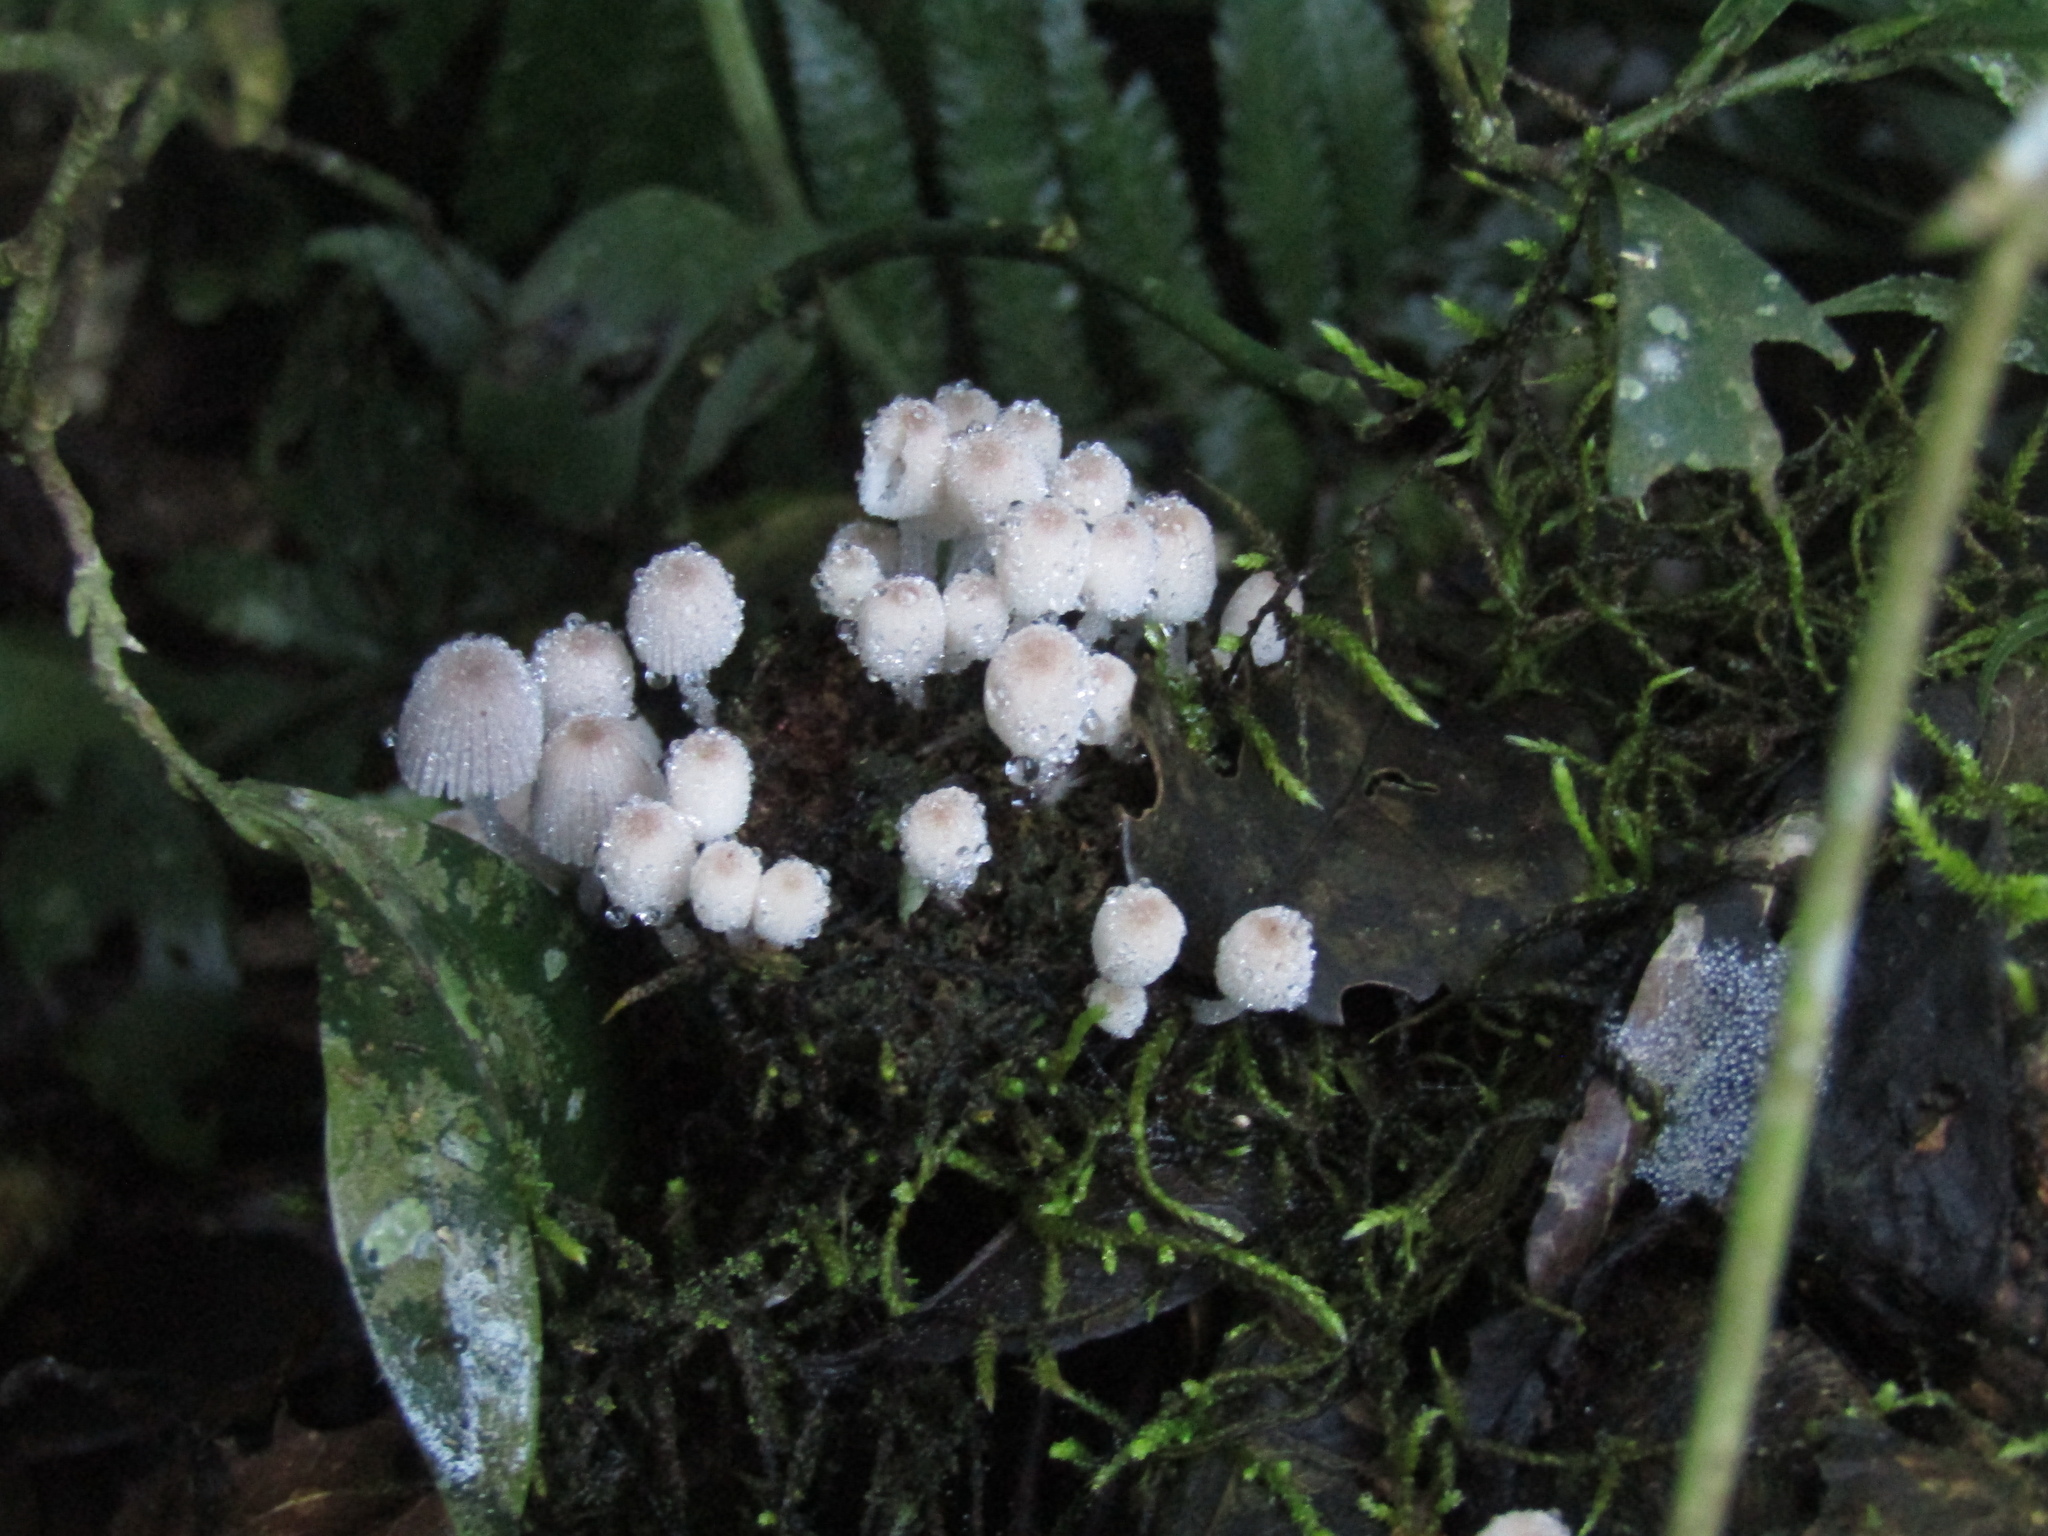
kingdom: Fungi
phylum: Basidiomycota
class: Agaricomycetes
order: Agaricales
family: Psathyrellaceae
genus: Coprinellus
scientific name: Coprinellus disseminatus
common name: Fairies' bonnets
